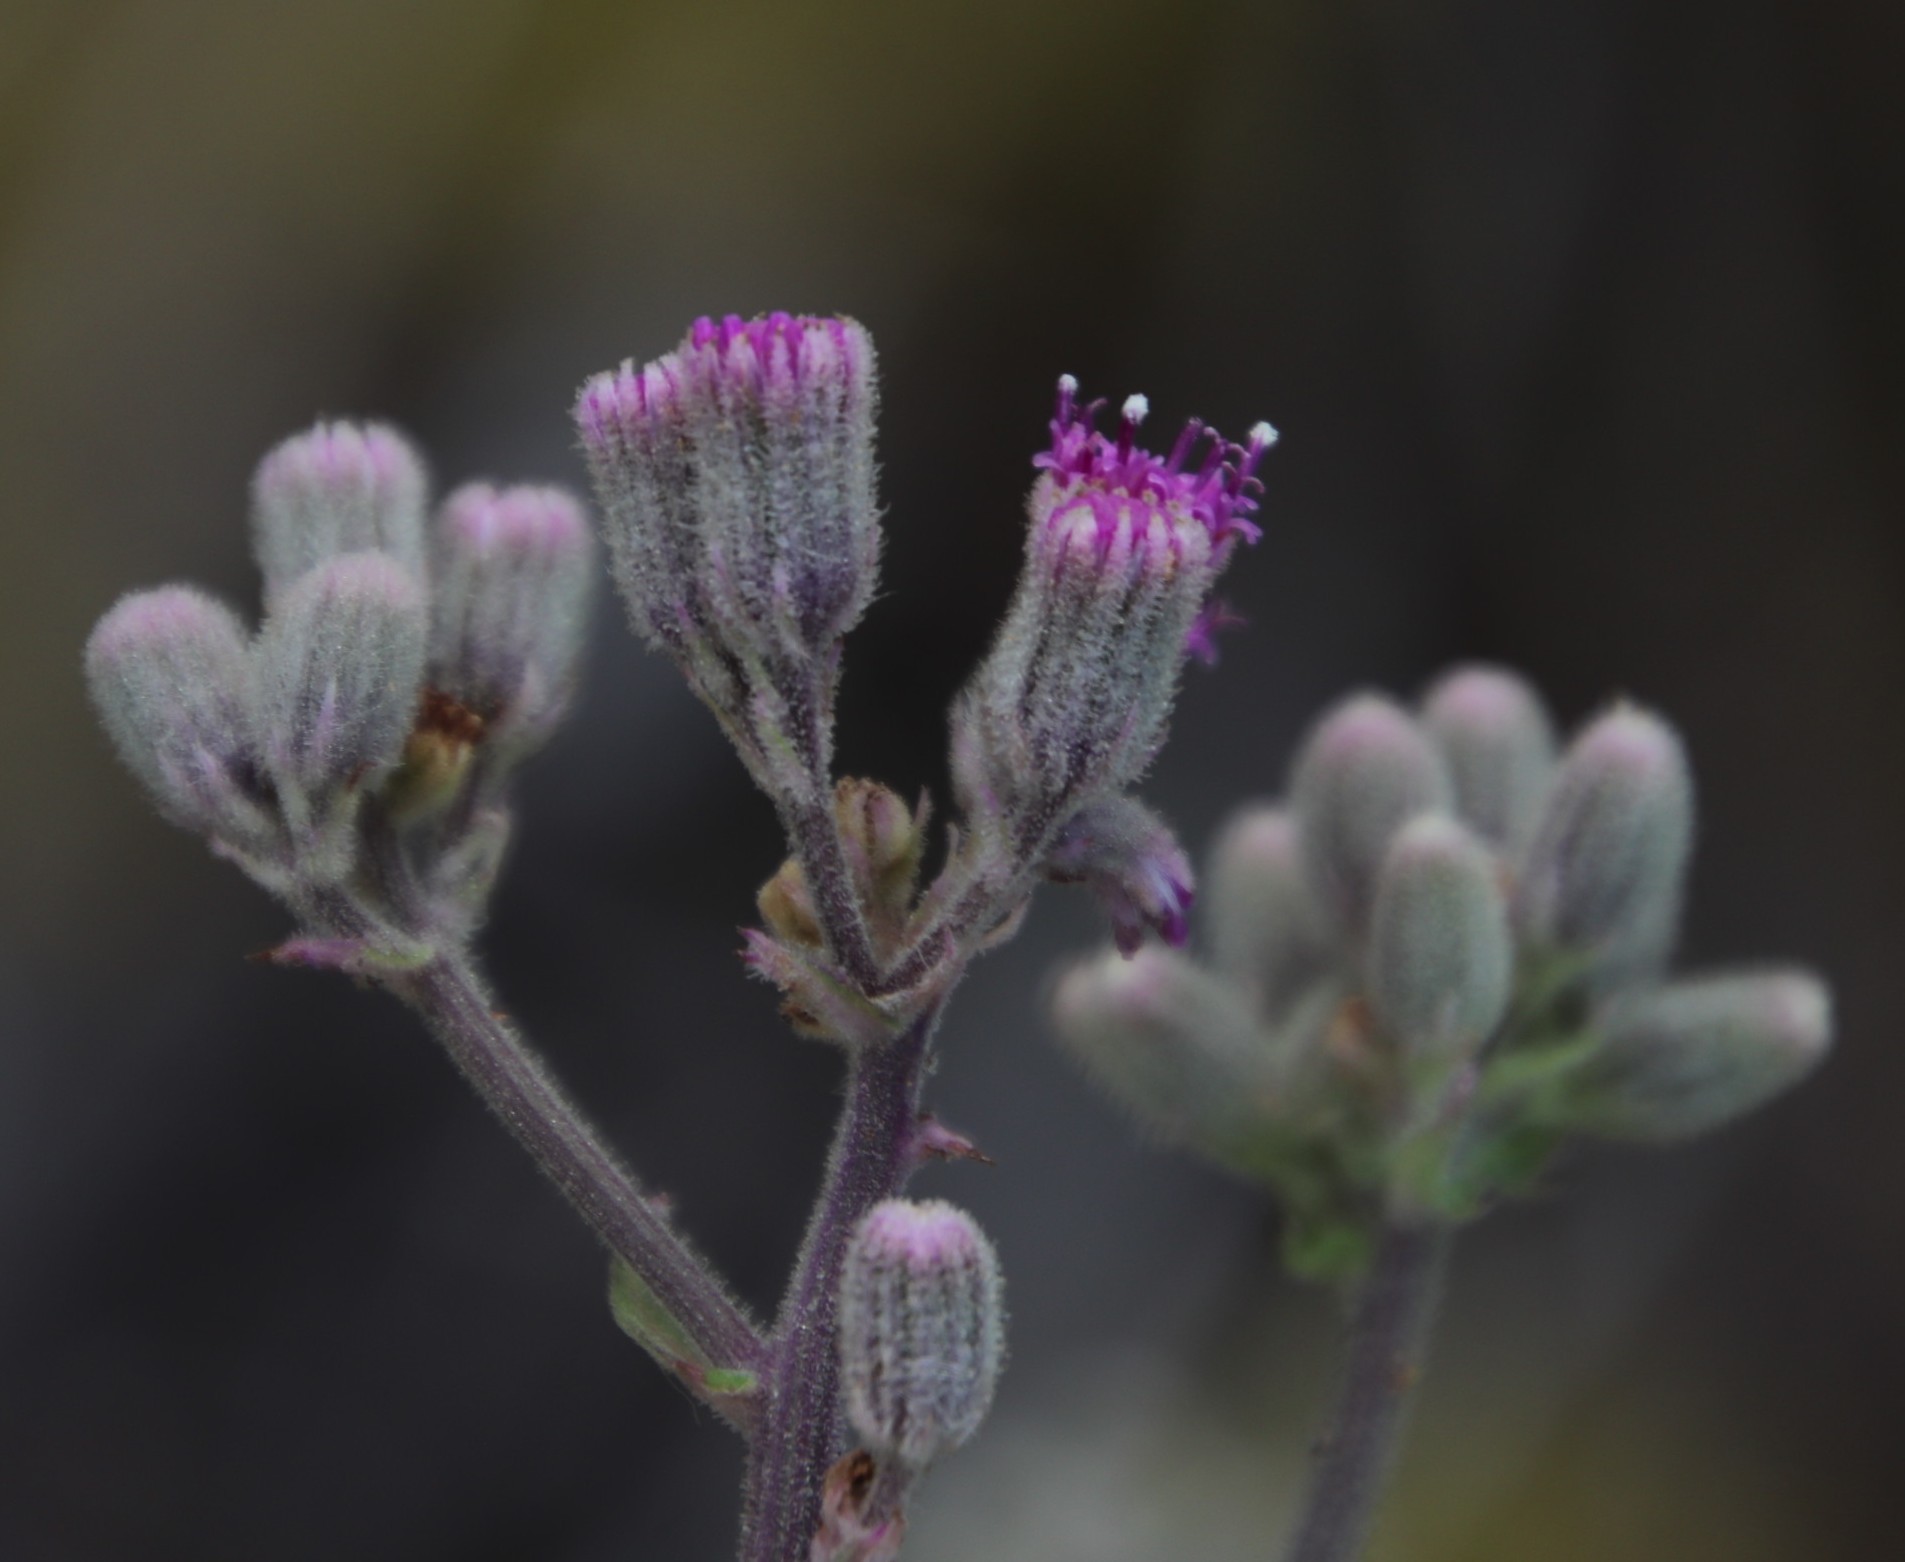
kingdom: Plantae
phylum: Tracheophyta
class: Magnoliopsida
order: Asterales
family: Asteraceae
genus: Senecio
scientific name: Senecio purpureus
